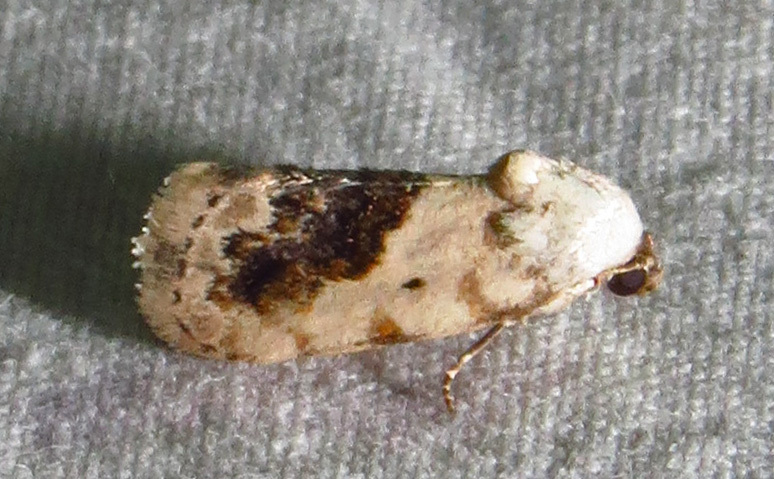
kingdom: Animalia
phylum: Arthropoda
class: Insecta
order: Lepidoptera
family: Noctuidae
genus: Acontia
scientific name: Acontia erastrioides
